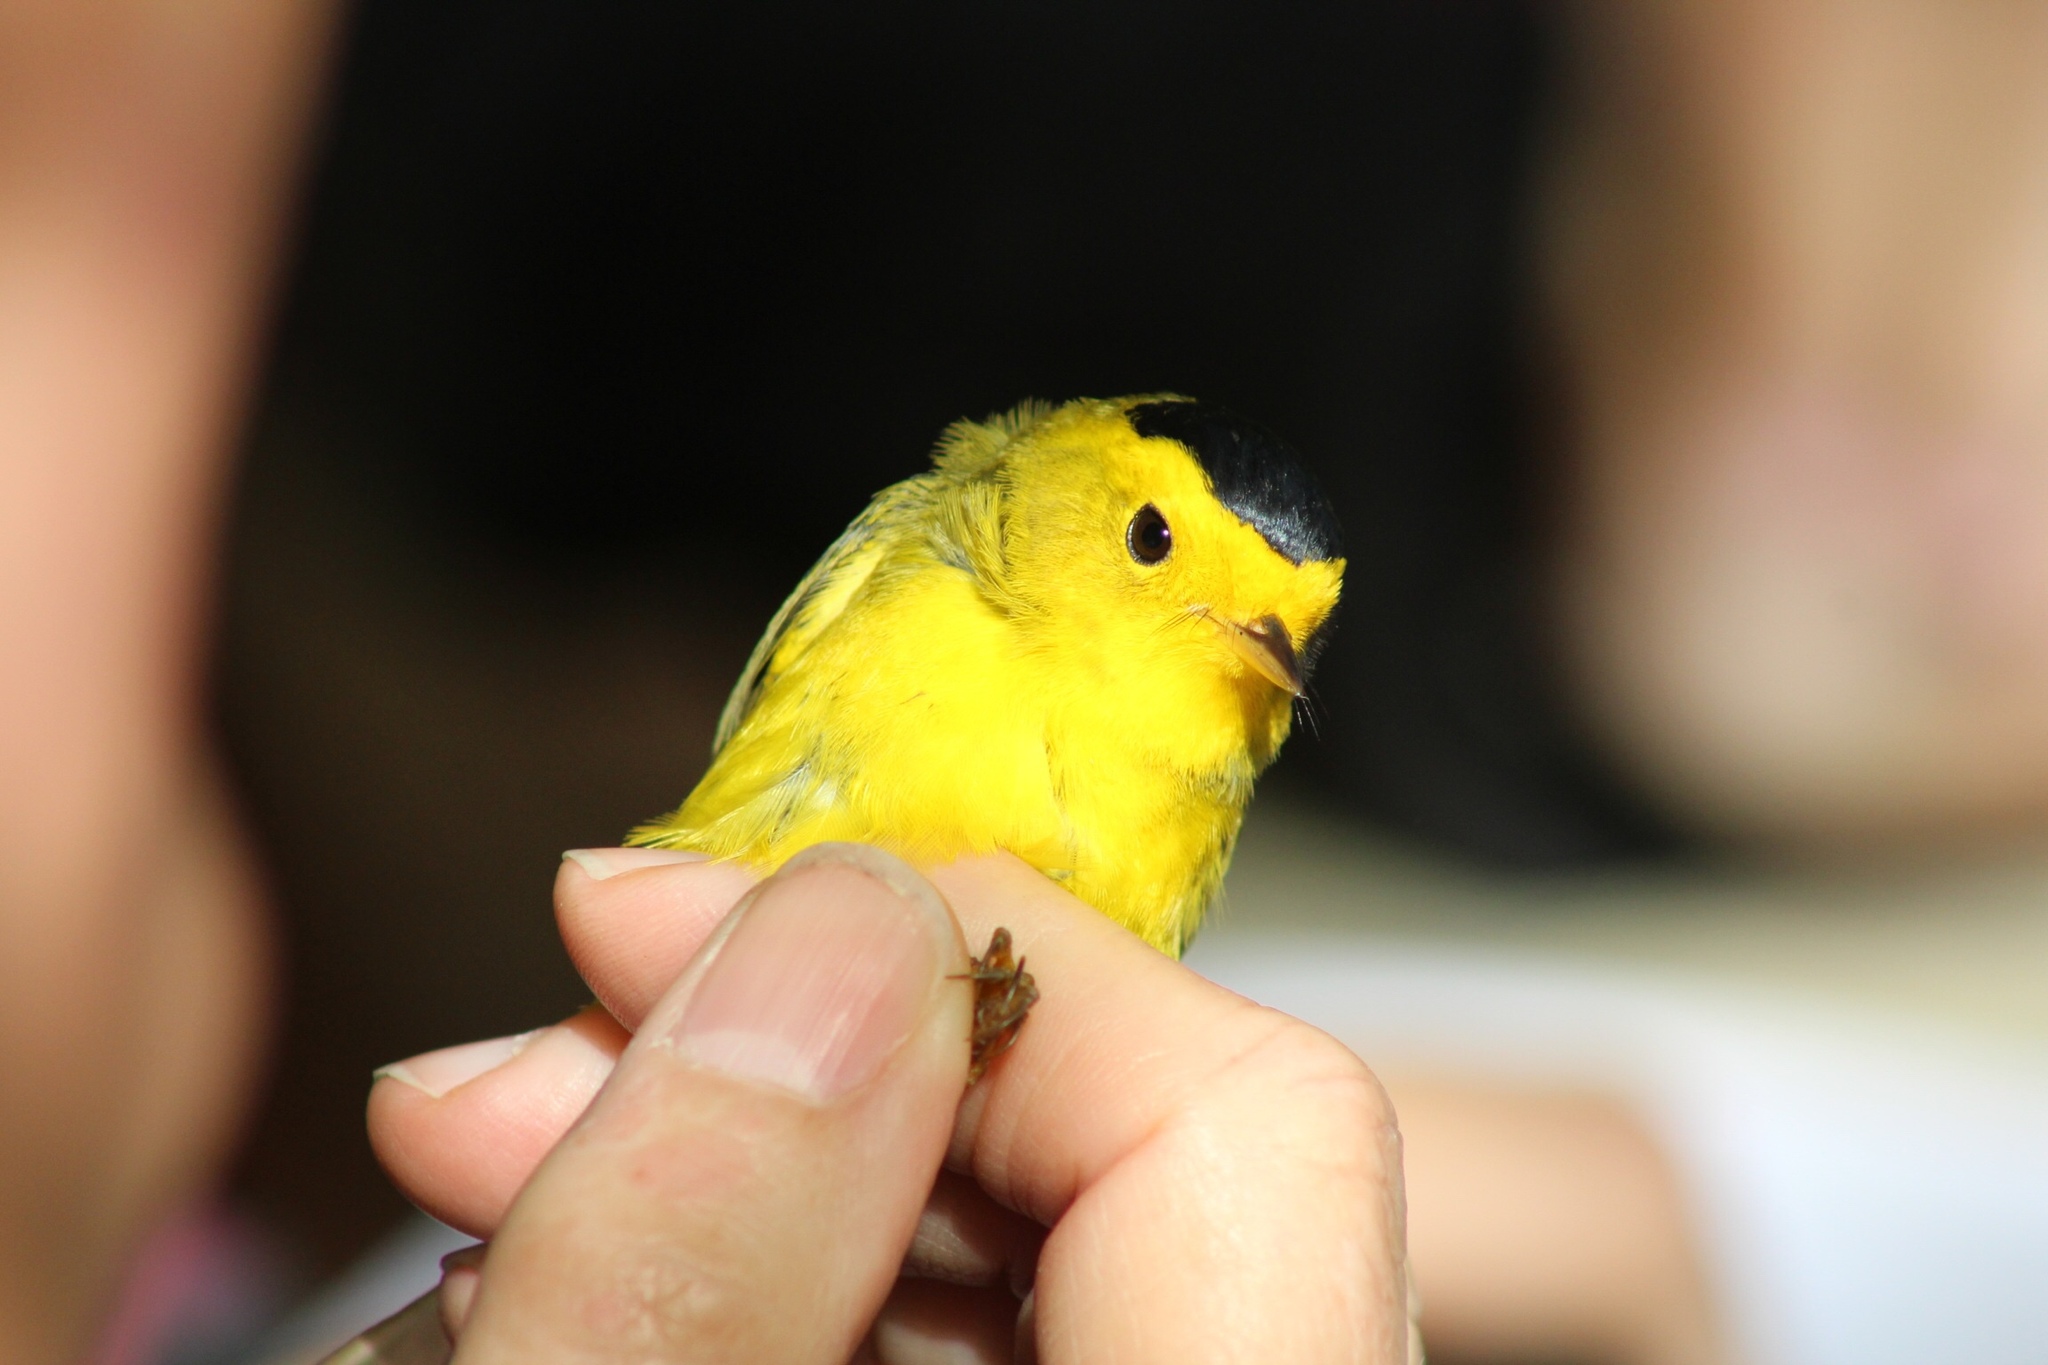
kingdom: Animalia
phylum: Chordata
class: Aves
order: Passeriformes
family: Parulidae
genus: Cardellina
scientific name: Cardellina pusilla
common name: Wilson's warbler
